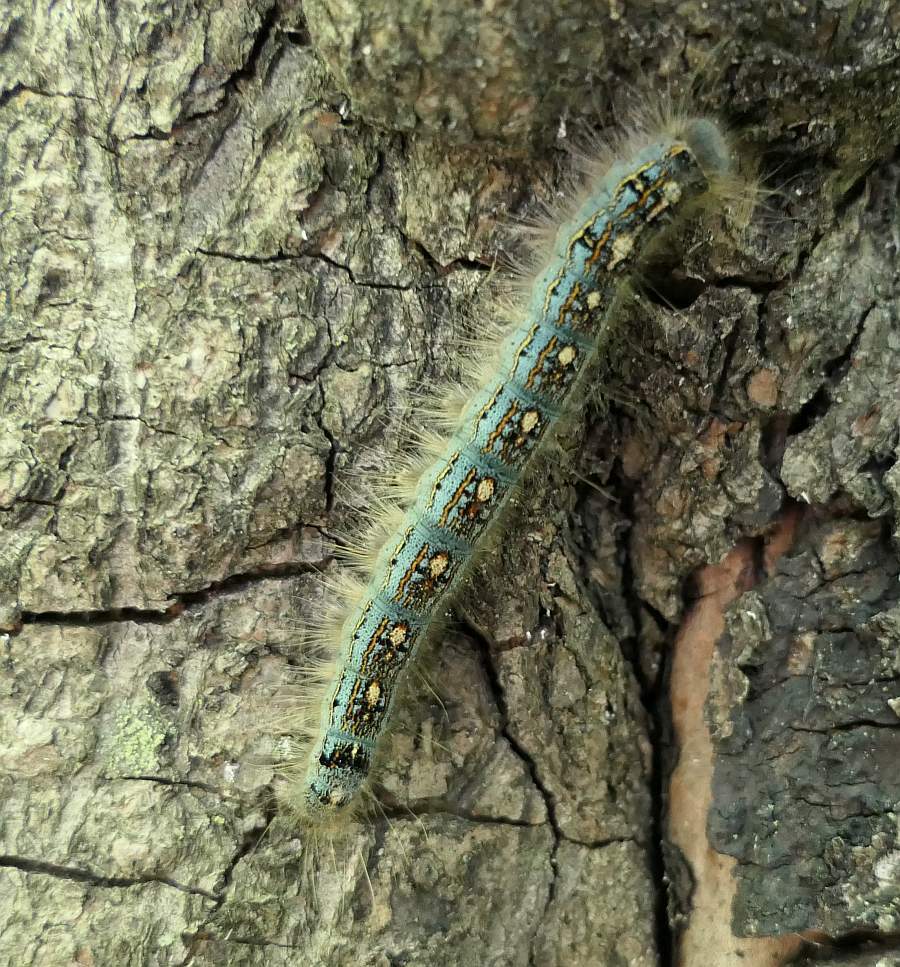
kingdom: Animalia
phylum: Arthropoda
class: Insecta
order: Lepidoptera
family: Lasiocampidae
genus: Malacosoma
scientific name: Malacosoma disstria
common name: Forest tent caterpillar
